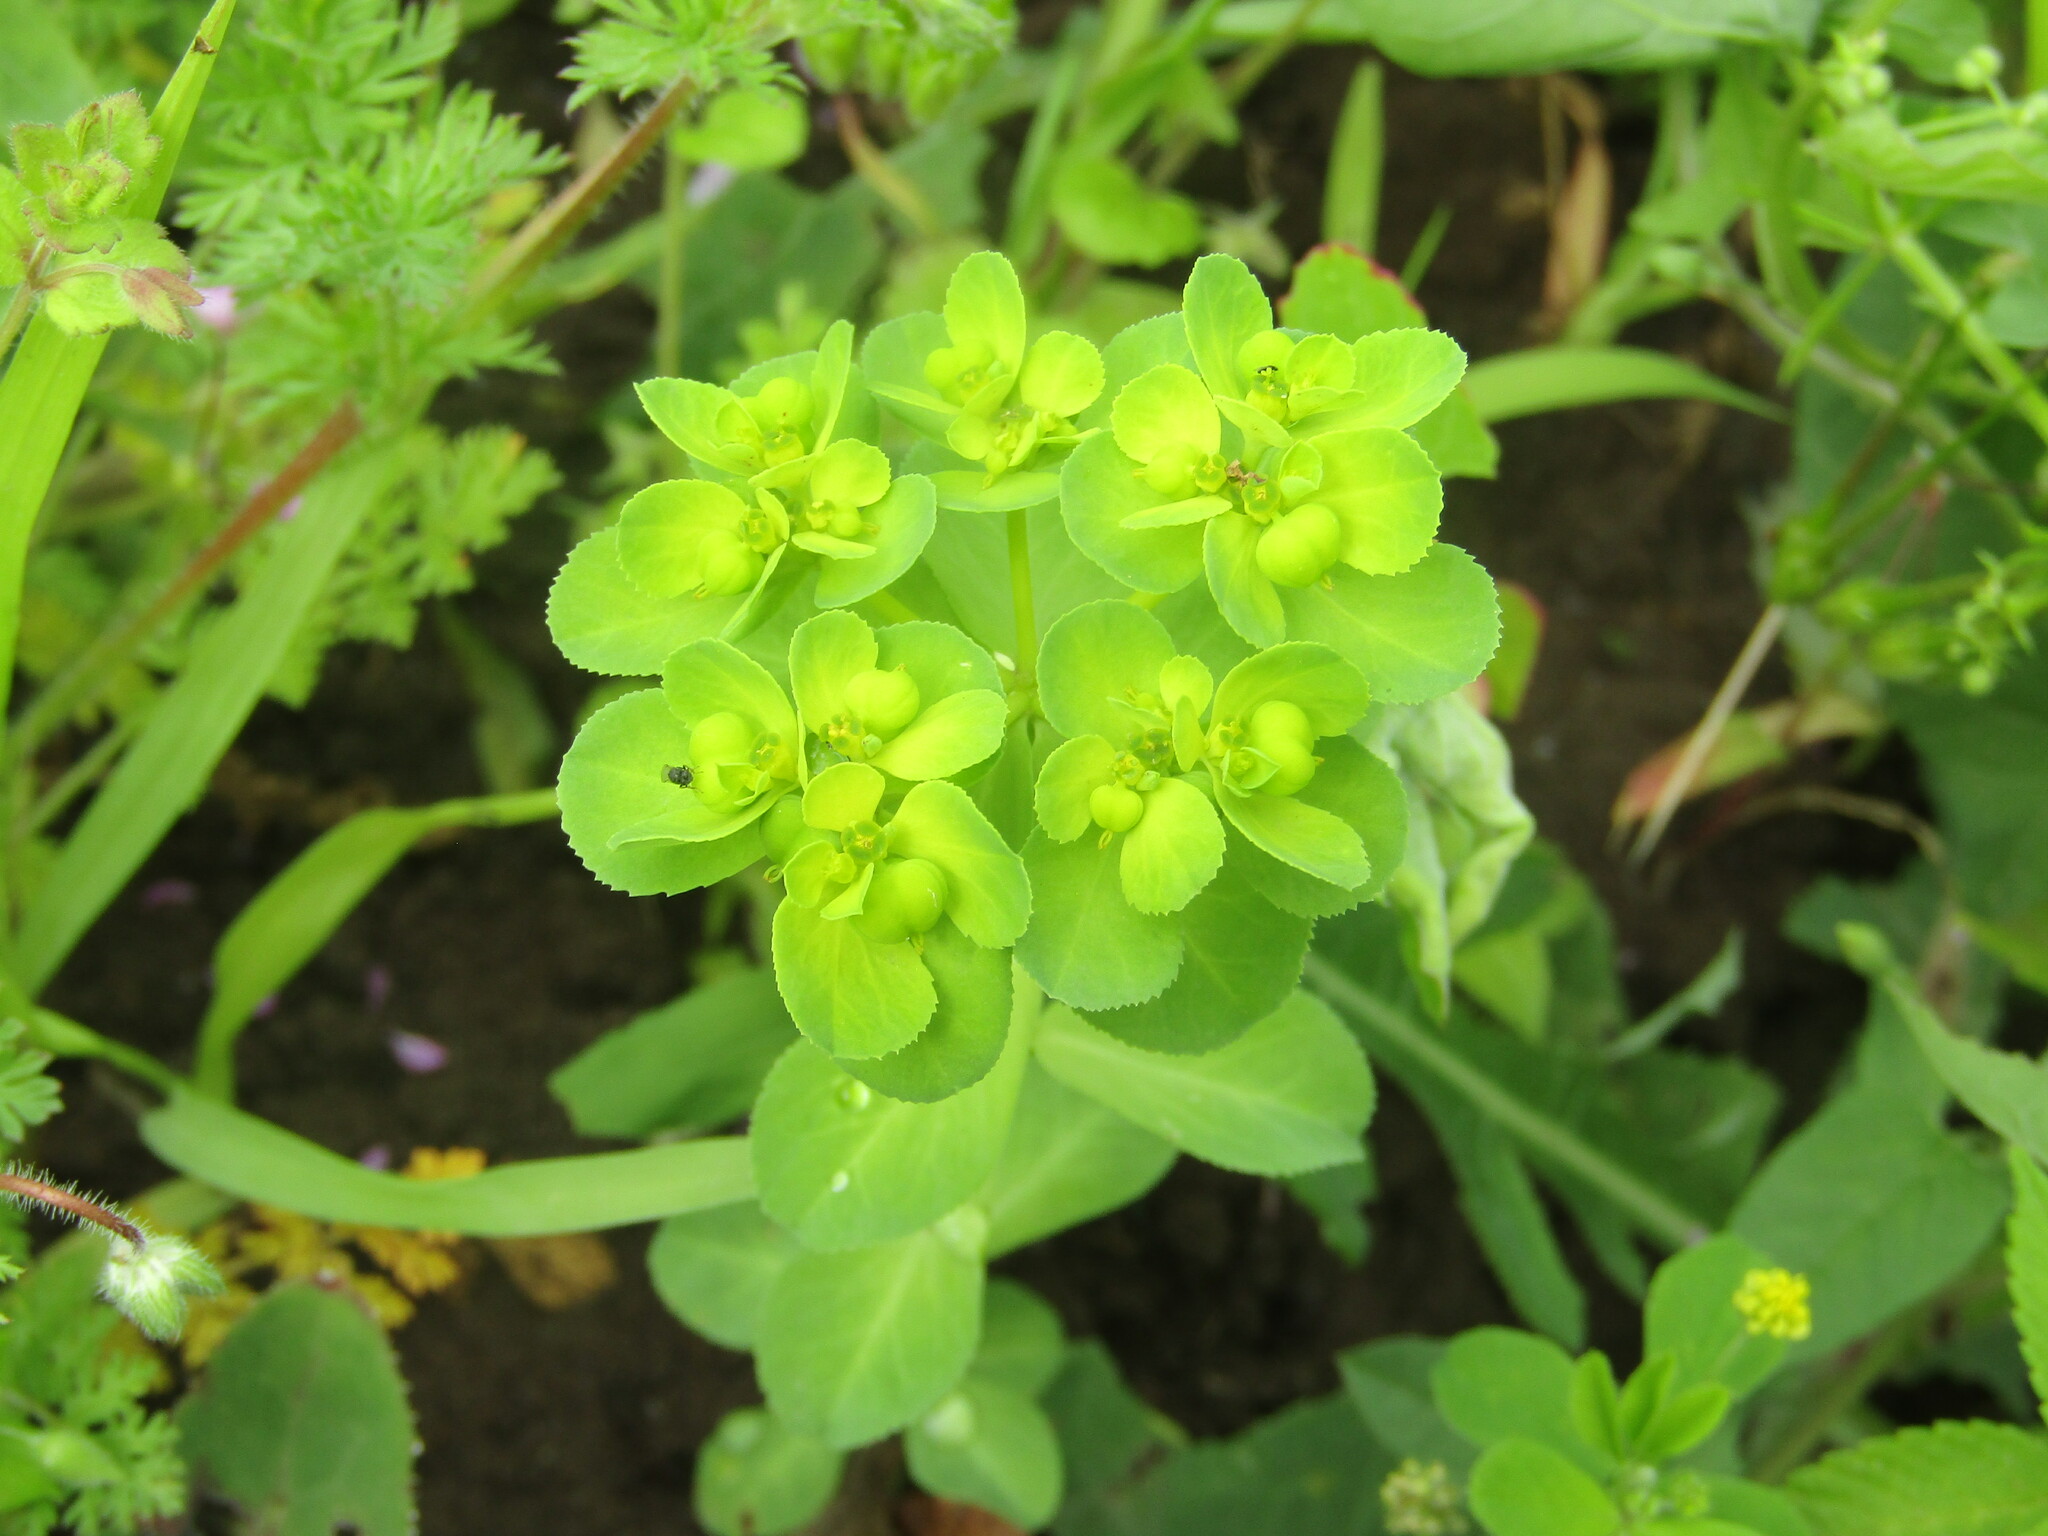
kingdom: Plantae
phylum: Tracheophyta
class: Magnoliopsida
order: Malpighiales
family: Euphorbiaceae
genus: Euphorbia
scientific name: Euphorbia helioscopia
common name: Sun spurge
